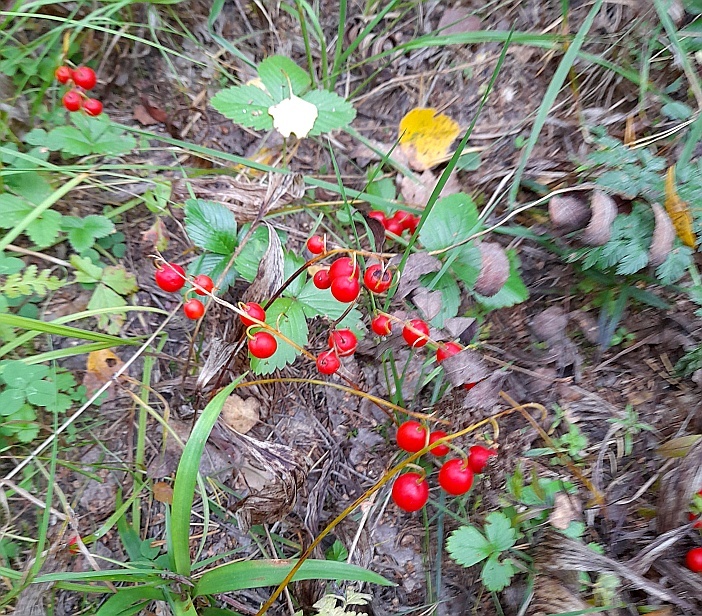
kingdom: Plantae
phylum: Tracheophyta
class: Liliopsida
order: Asparagales
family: Asparagaceae
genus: Convallaria
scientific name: Convallaria majalis
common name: Lily-of-the-valley
